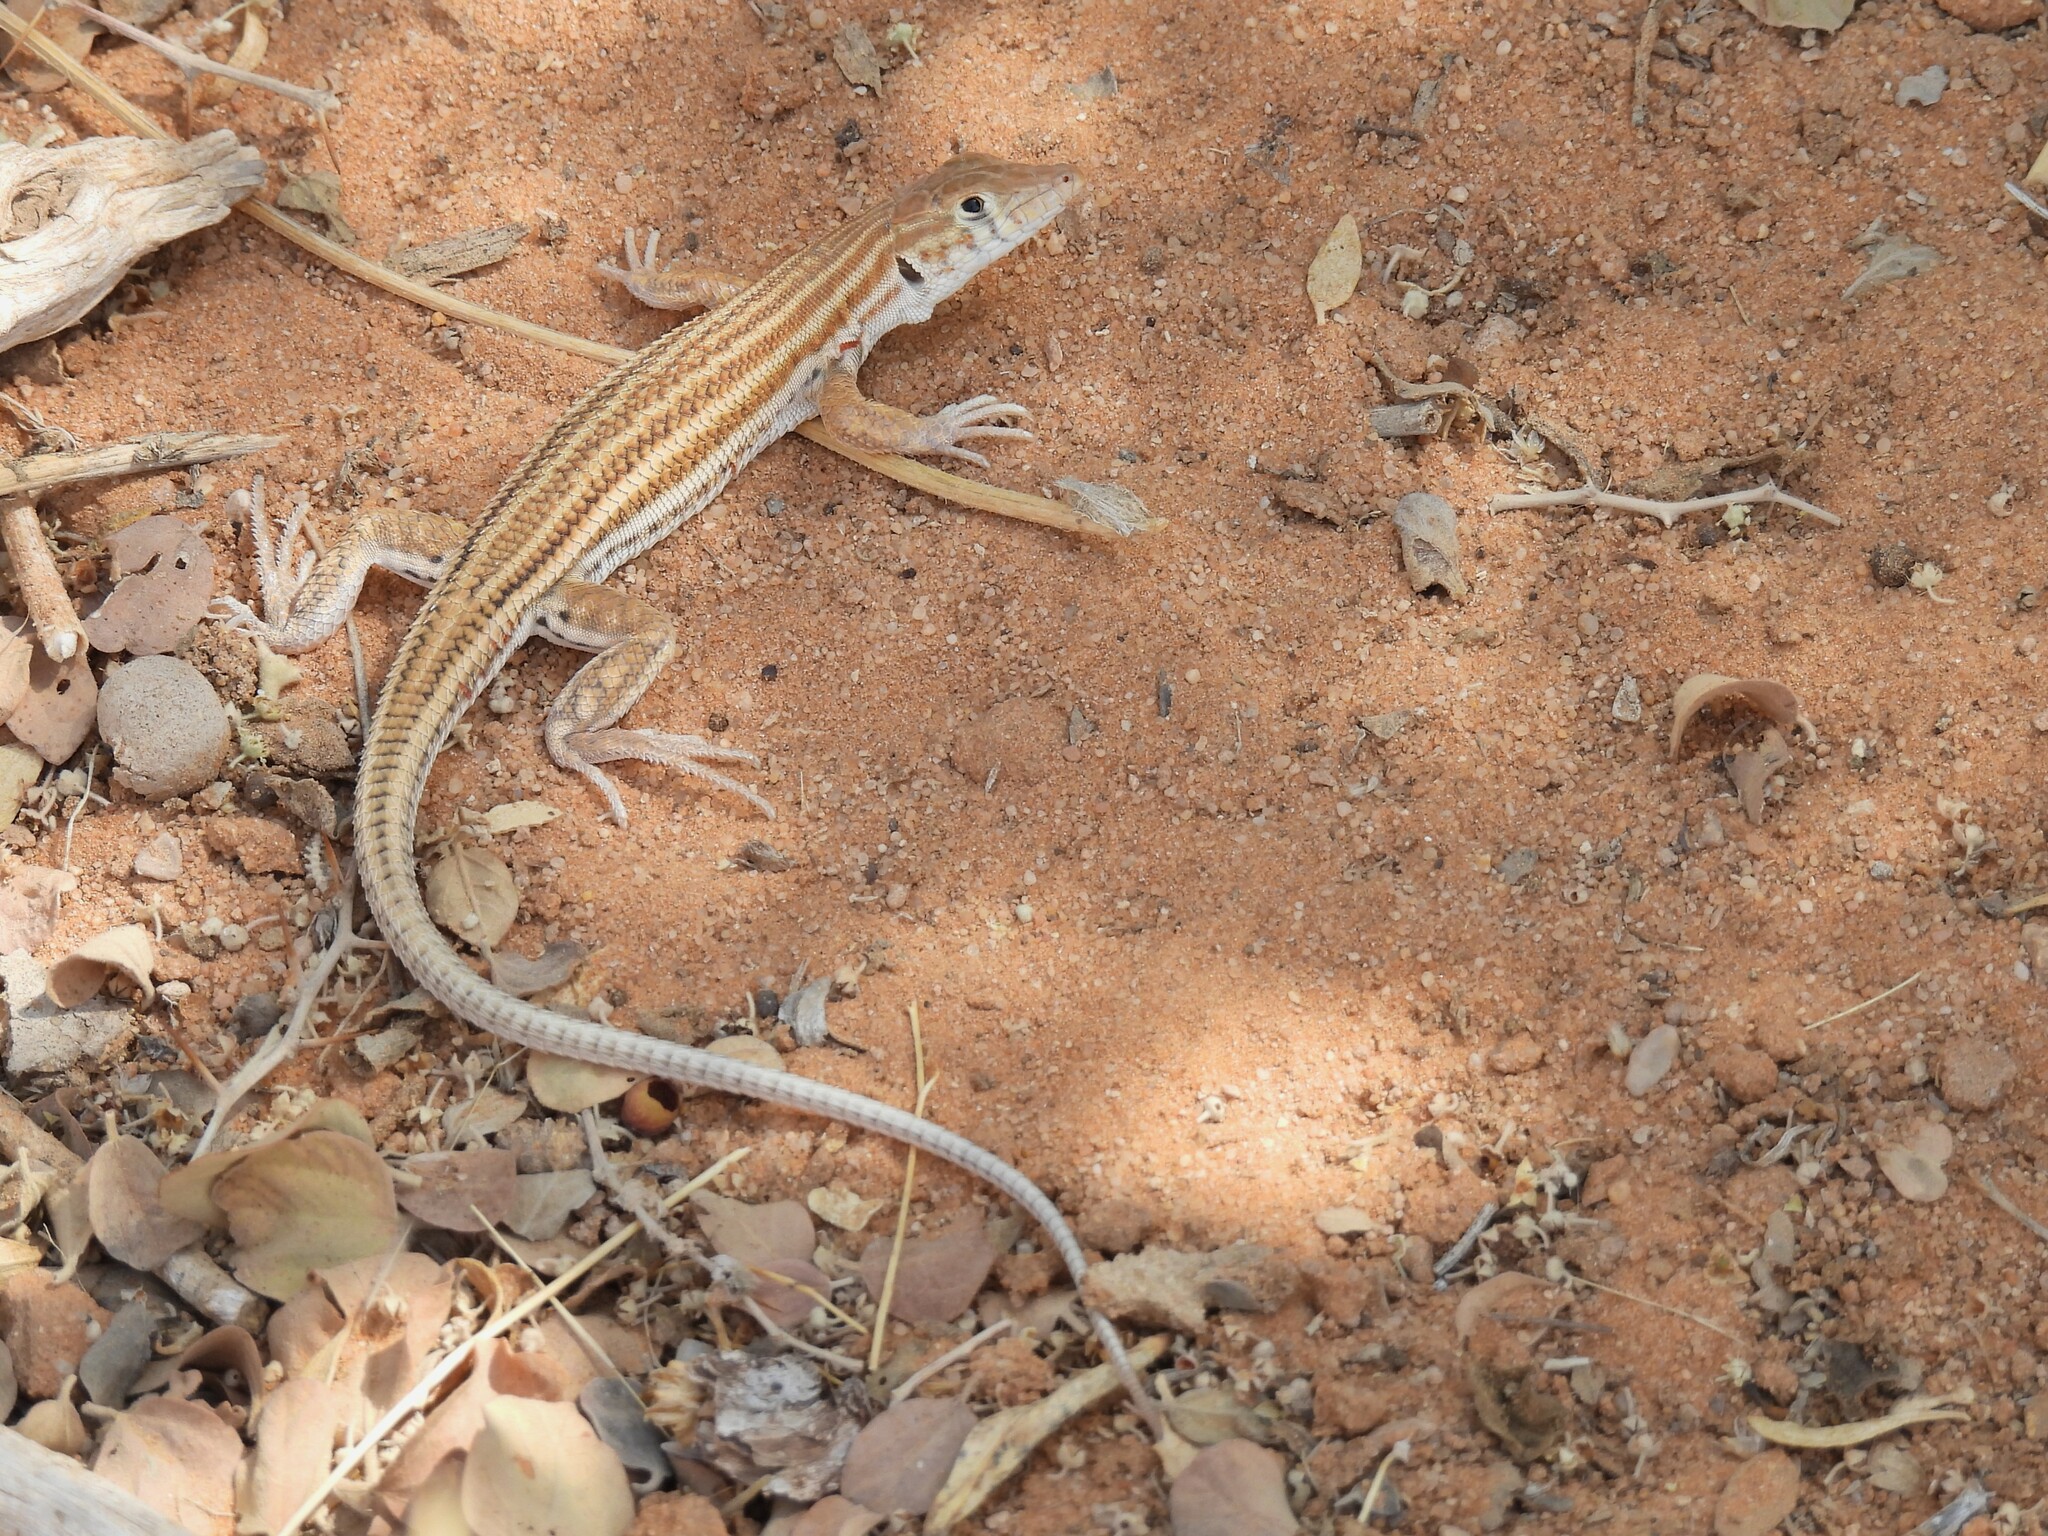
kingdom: Animalia
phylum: Chordata
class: Squamata
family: Lacertidae
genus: Acanthodactylus
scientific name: Acanthodactylus boskianus
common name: Bosc’s fringe-toed lizard
